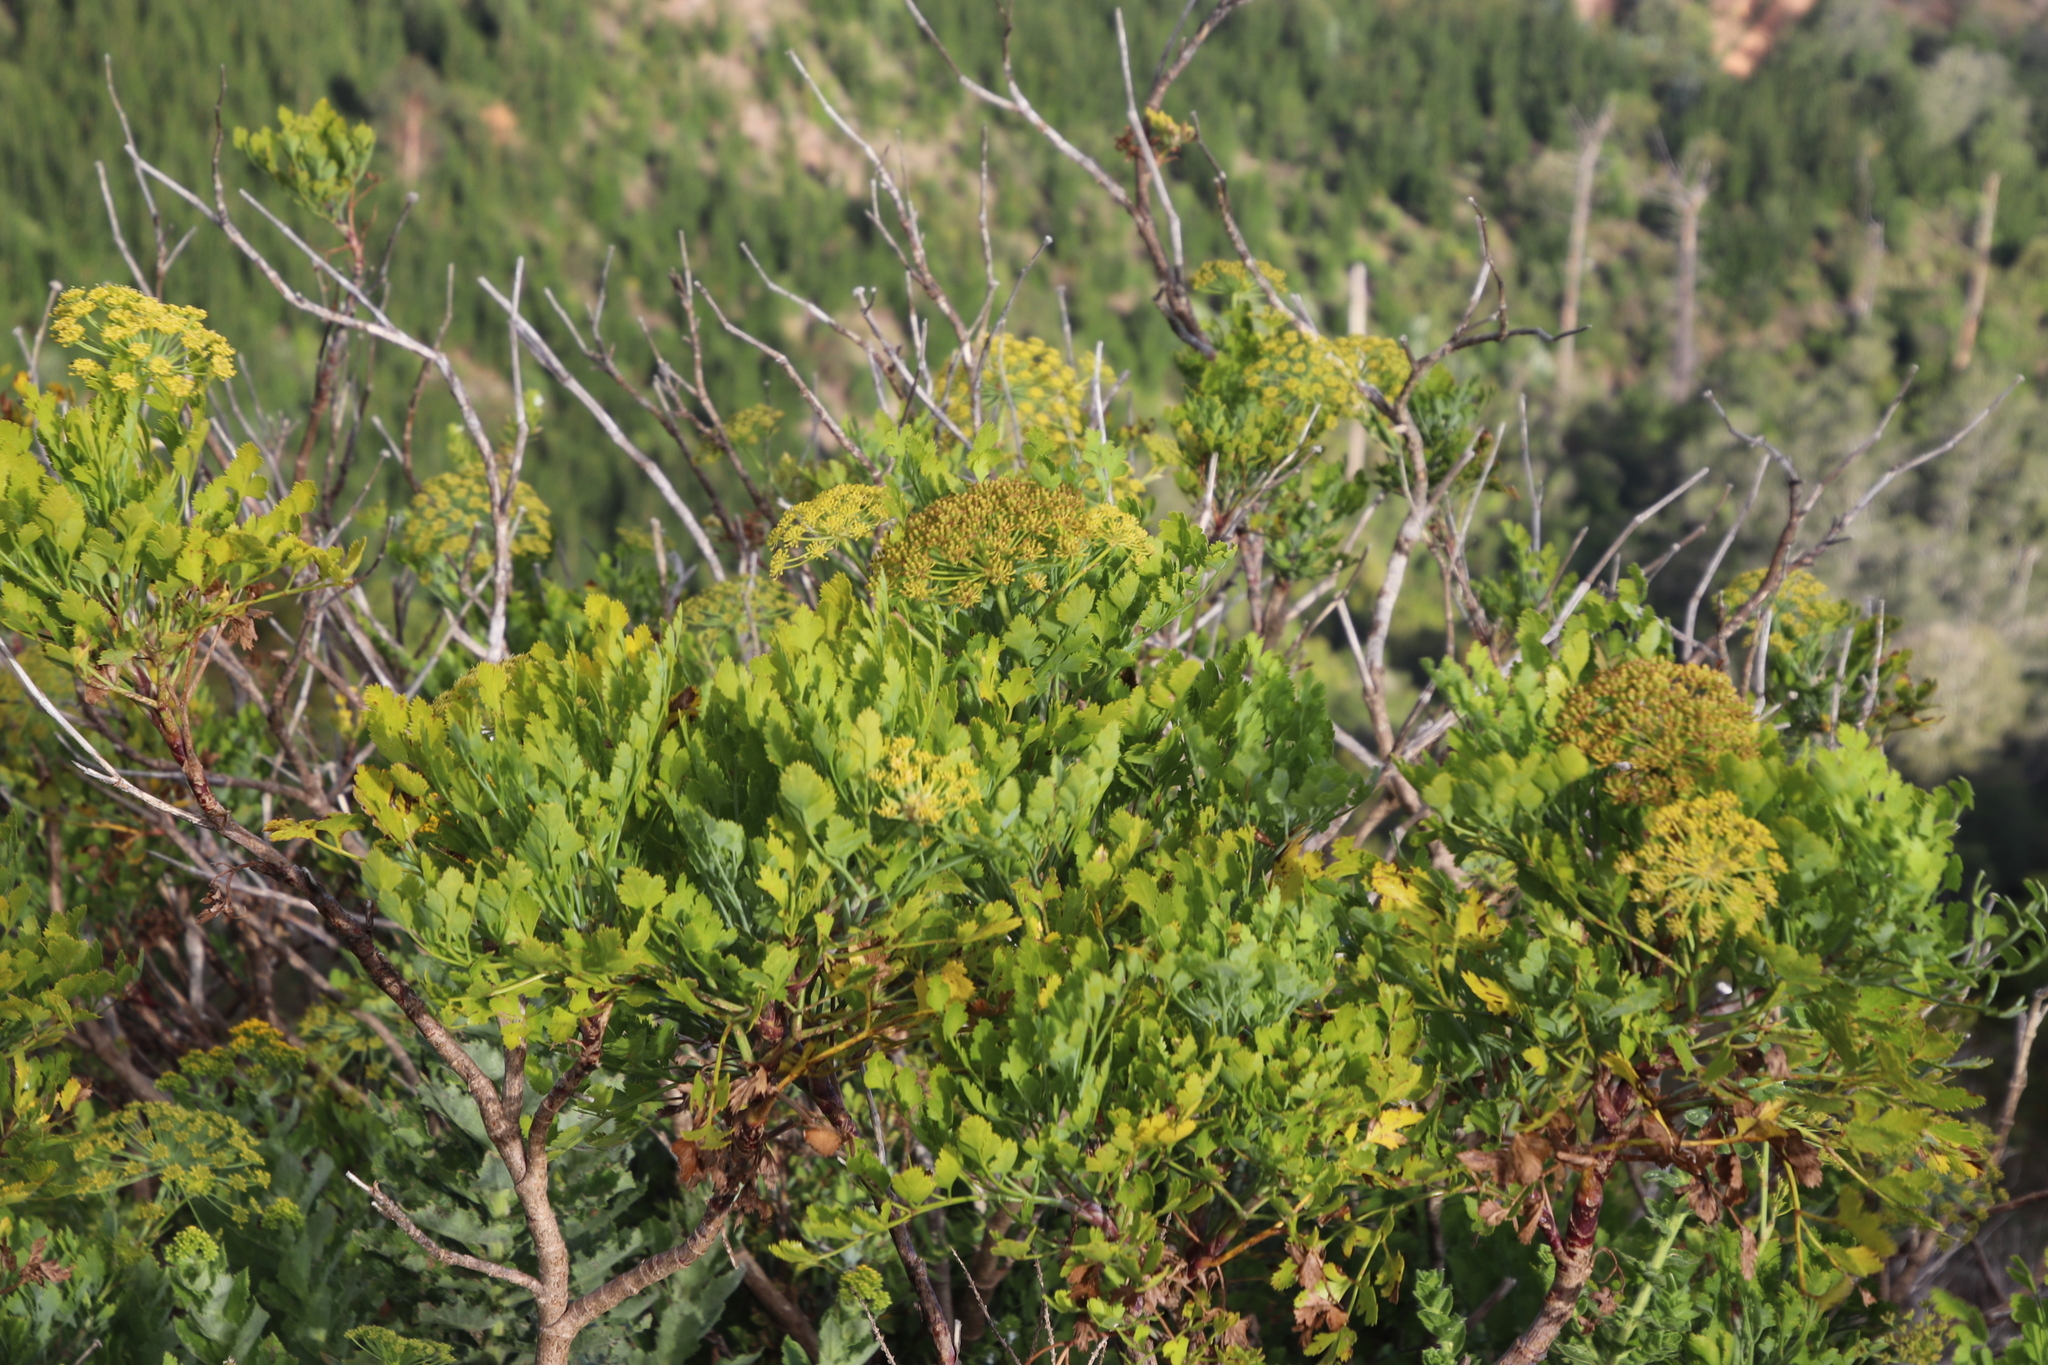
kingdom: Plantae
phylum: Tracheophyta
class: Magnoliopsida
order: Apiales
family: Apiaceae
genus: Notobubon
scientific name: Notobubon galbanum
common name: Blisterbush
